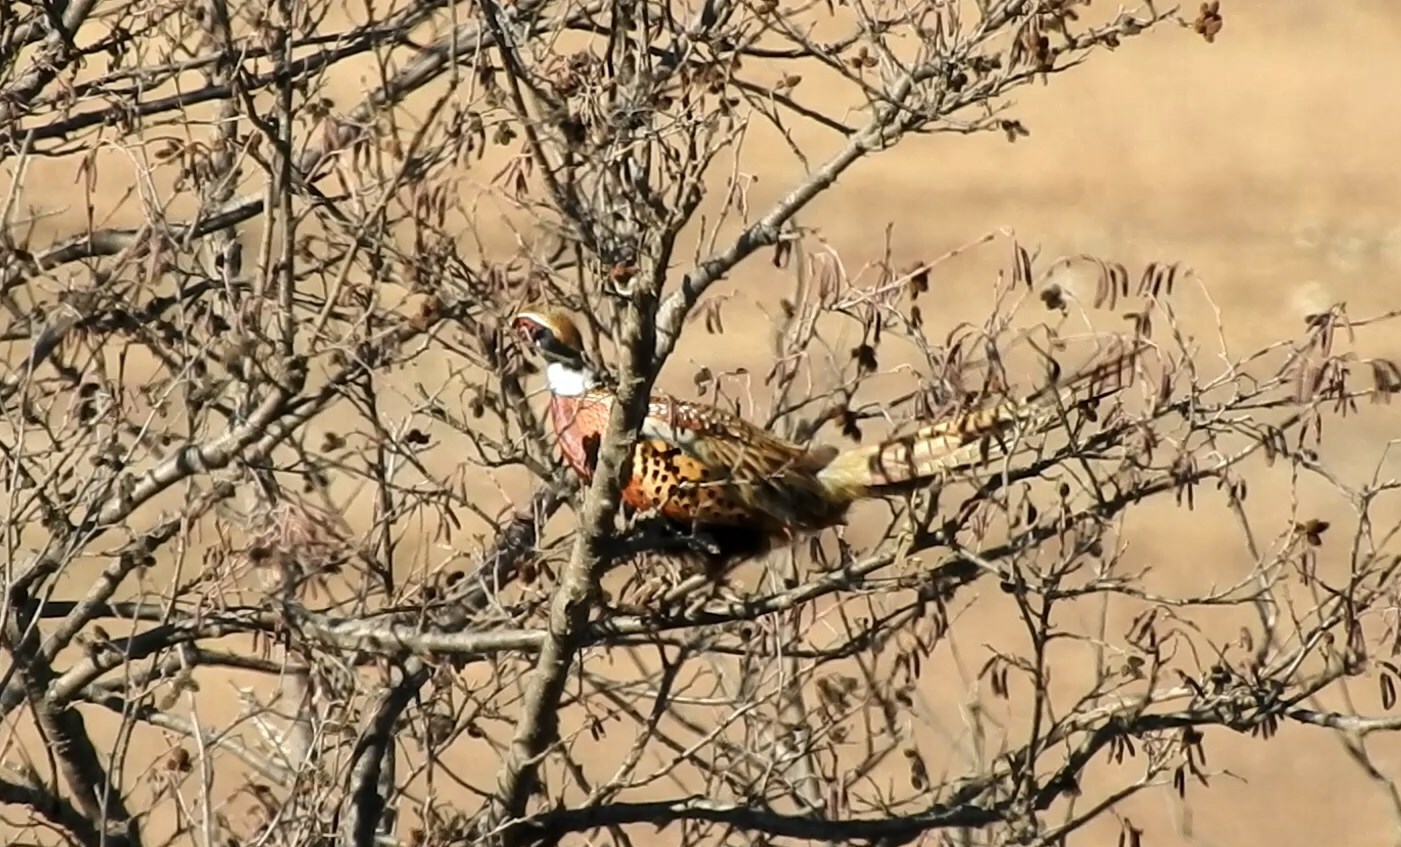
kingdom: Animalia
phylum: Chordata
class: Aves
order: Galliformes
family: Phasianidae
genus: Phasianus
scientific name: Phasianus colchicus
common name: Common pheasant
